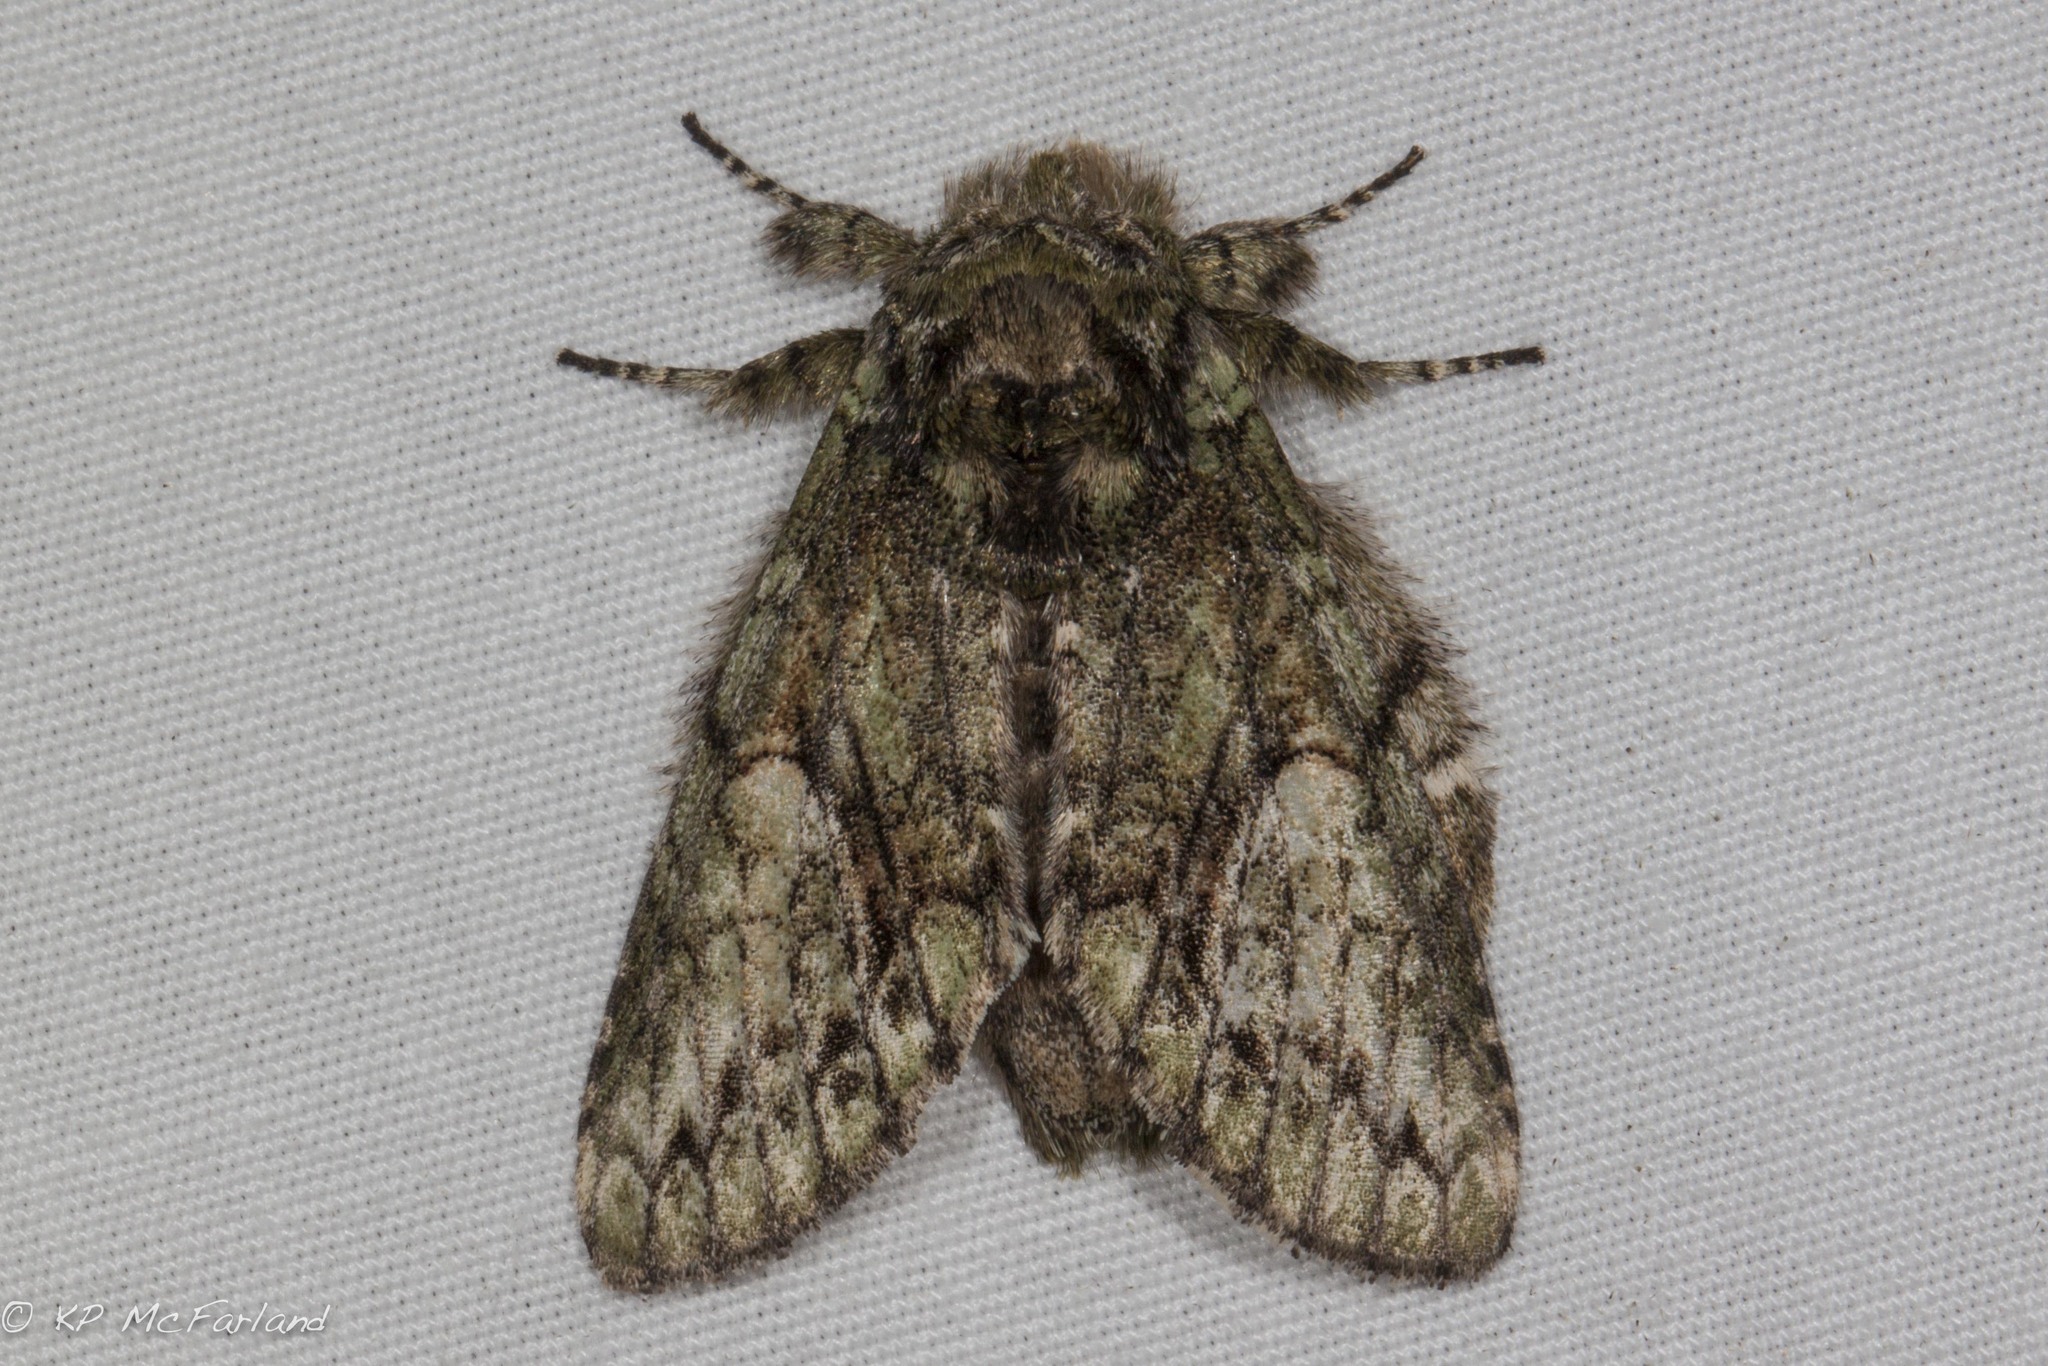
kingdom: Animalia
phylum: Arthropoda
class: Insecta
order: Lepidoptera
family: Notodontidae
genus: Heterocampa
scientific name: Heterocampa
